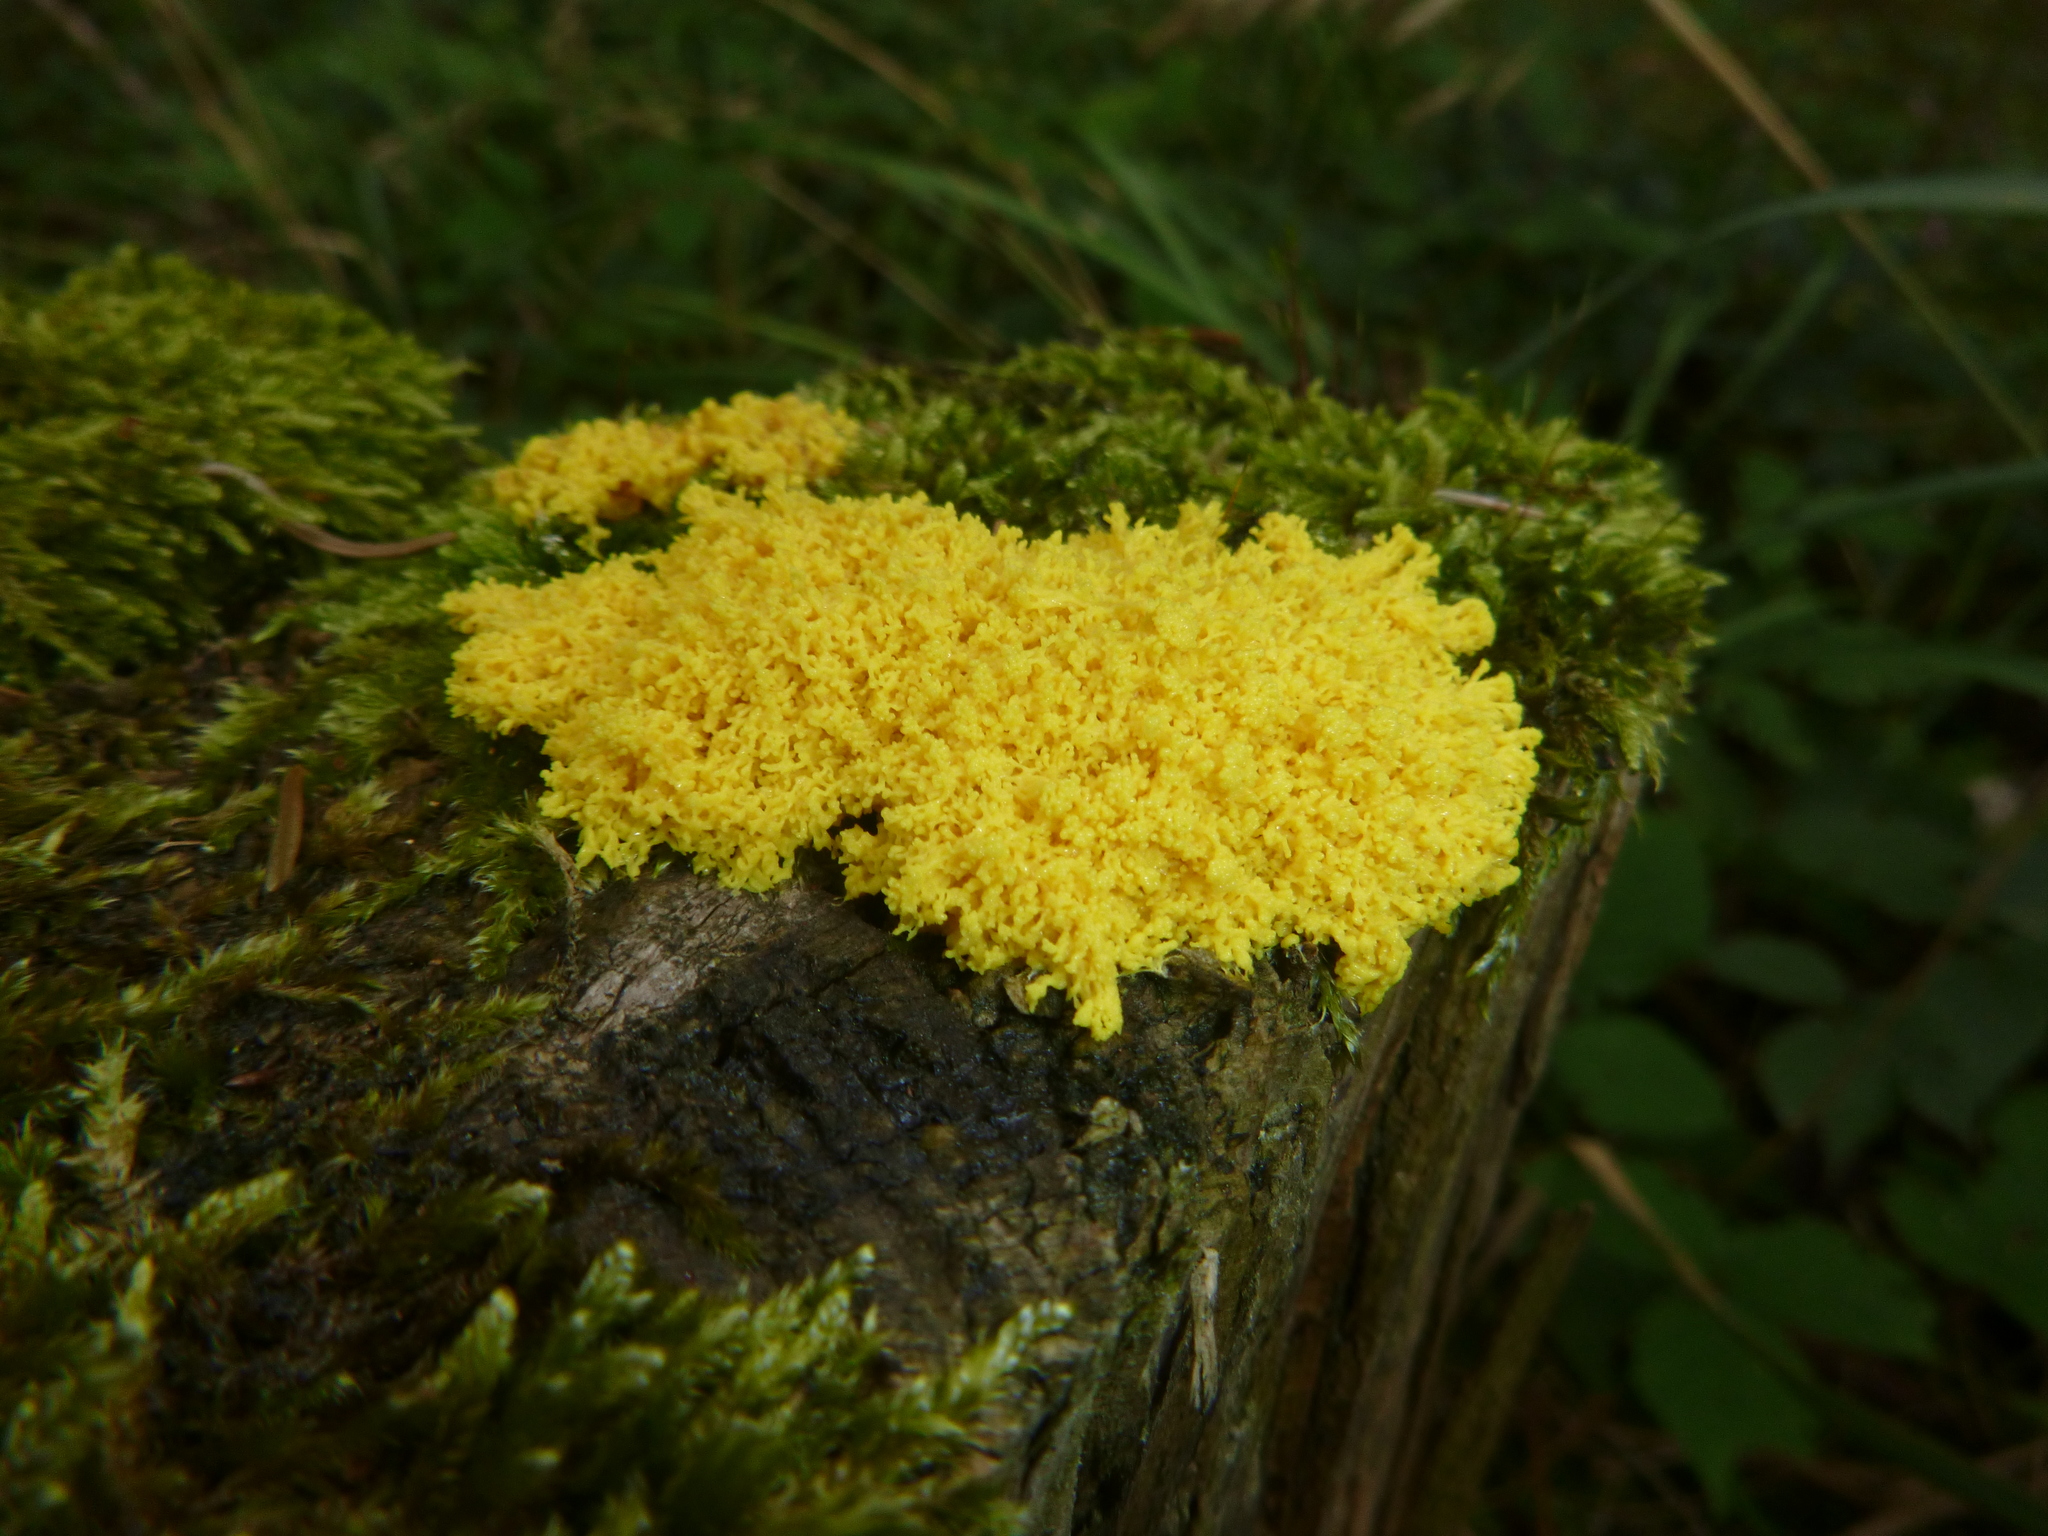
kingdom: Protozoa
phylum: Mycetozoa
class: Myxomycetes
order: Physarales
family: Physaraceae
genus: Fuligo
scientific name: Fuligo septica
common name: Dog vomit slime mold
